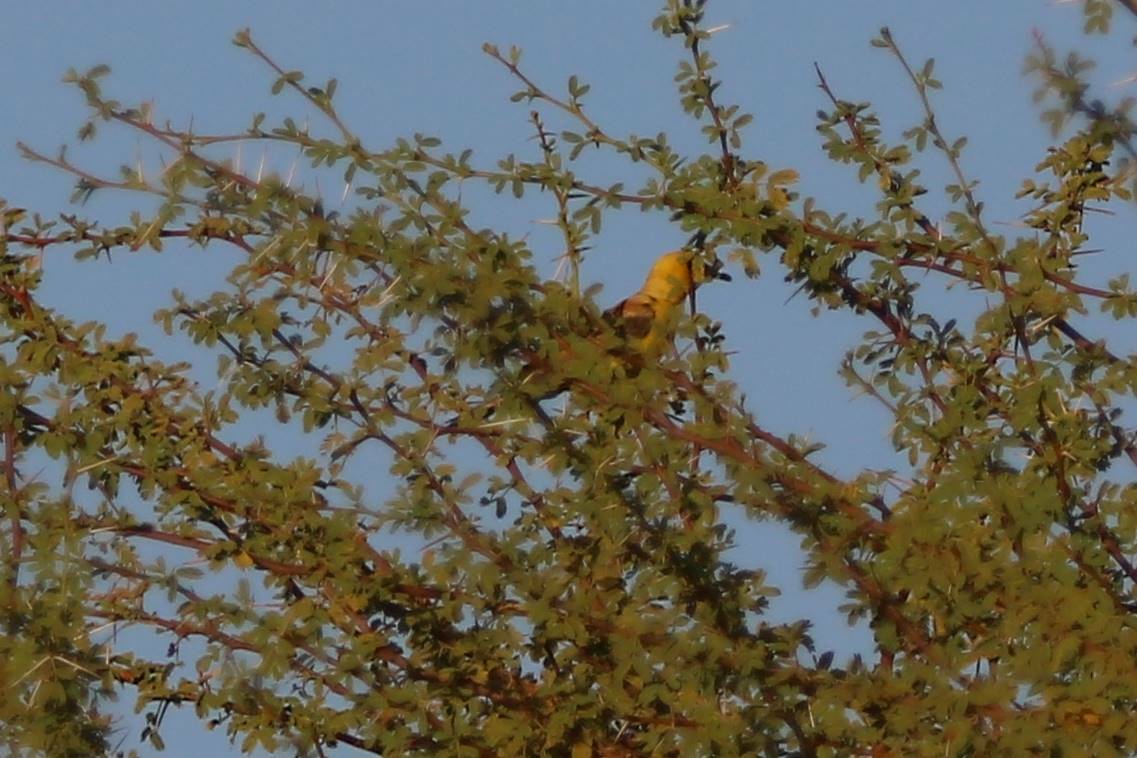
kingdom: Animalia
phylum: Chordata
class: Aves
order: Passeriformes
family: Passeridae
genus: Passer
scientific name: Passer luteus
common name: Sudan golden sparrow
